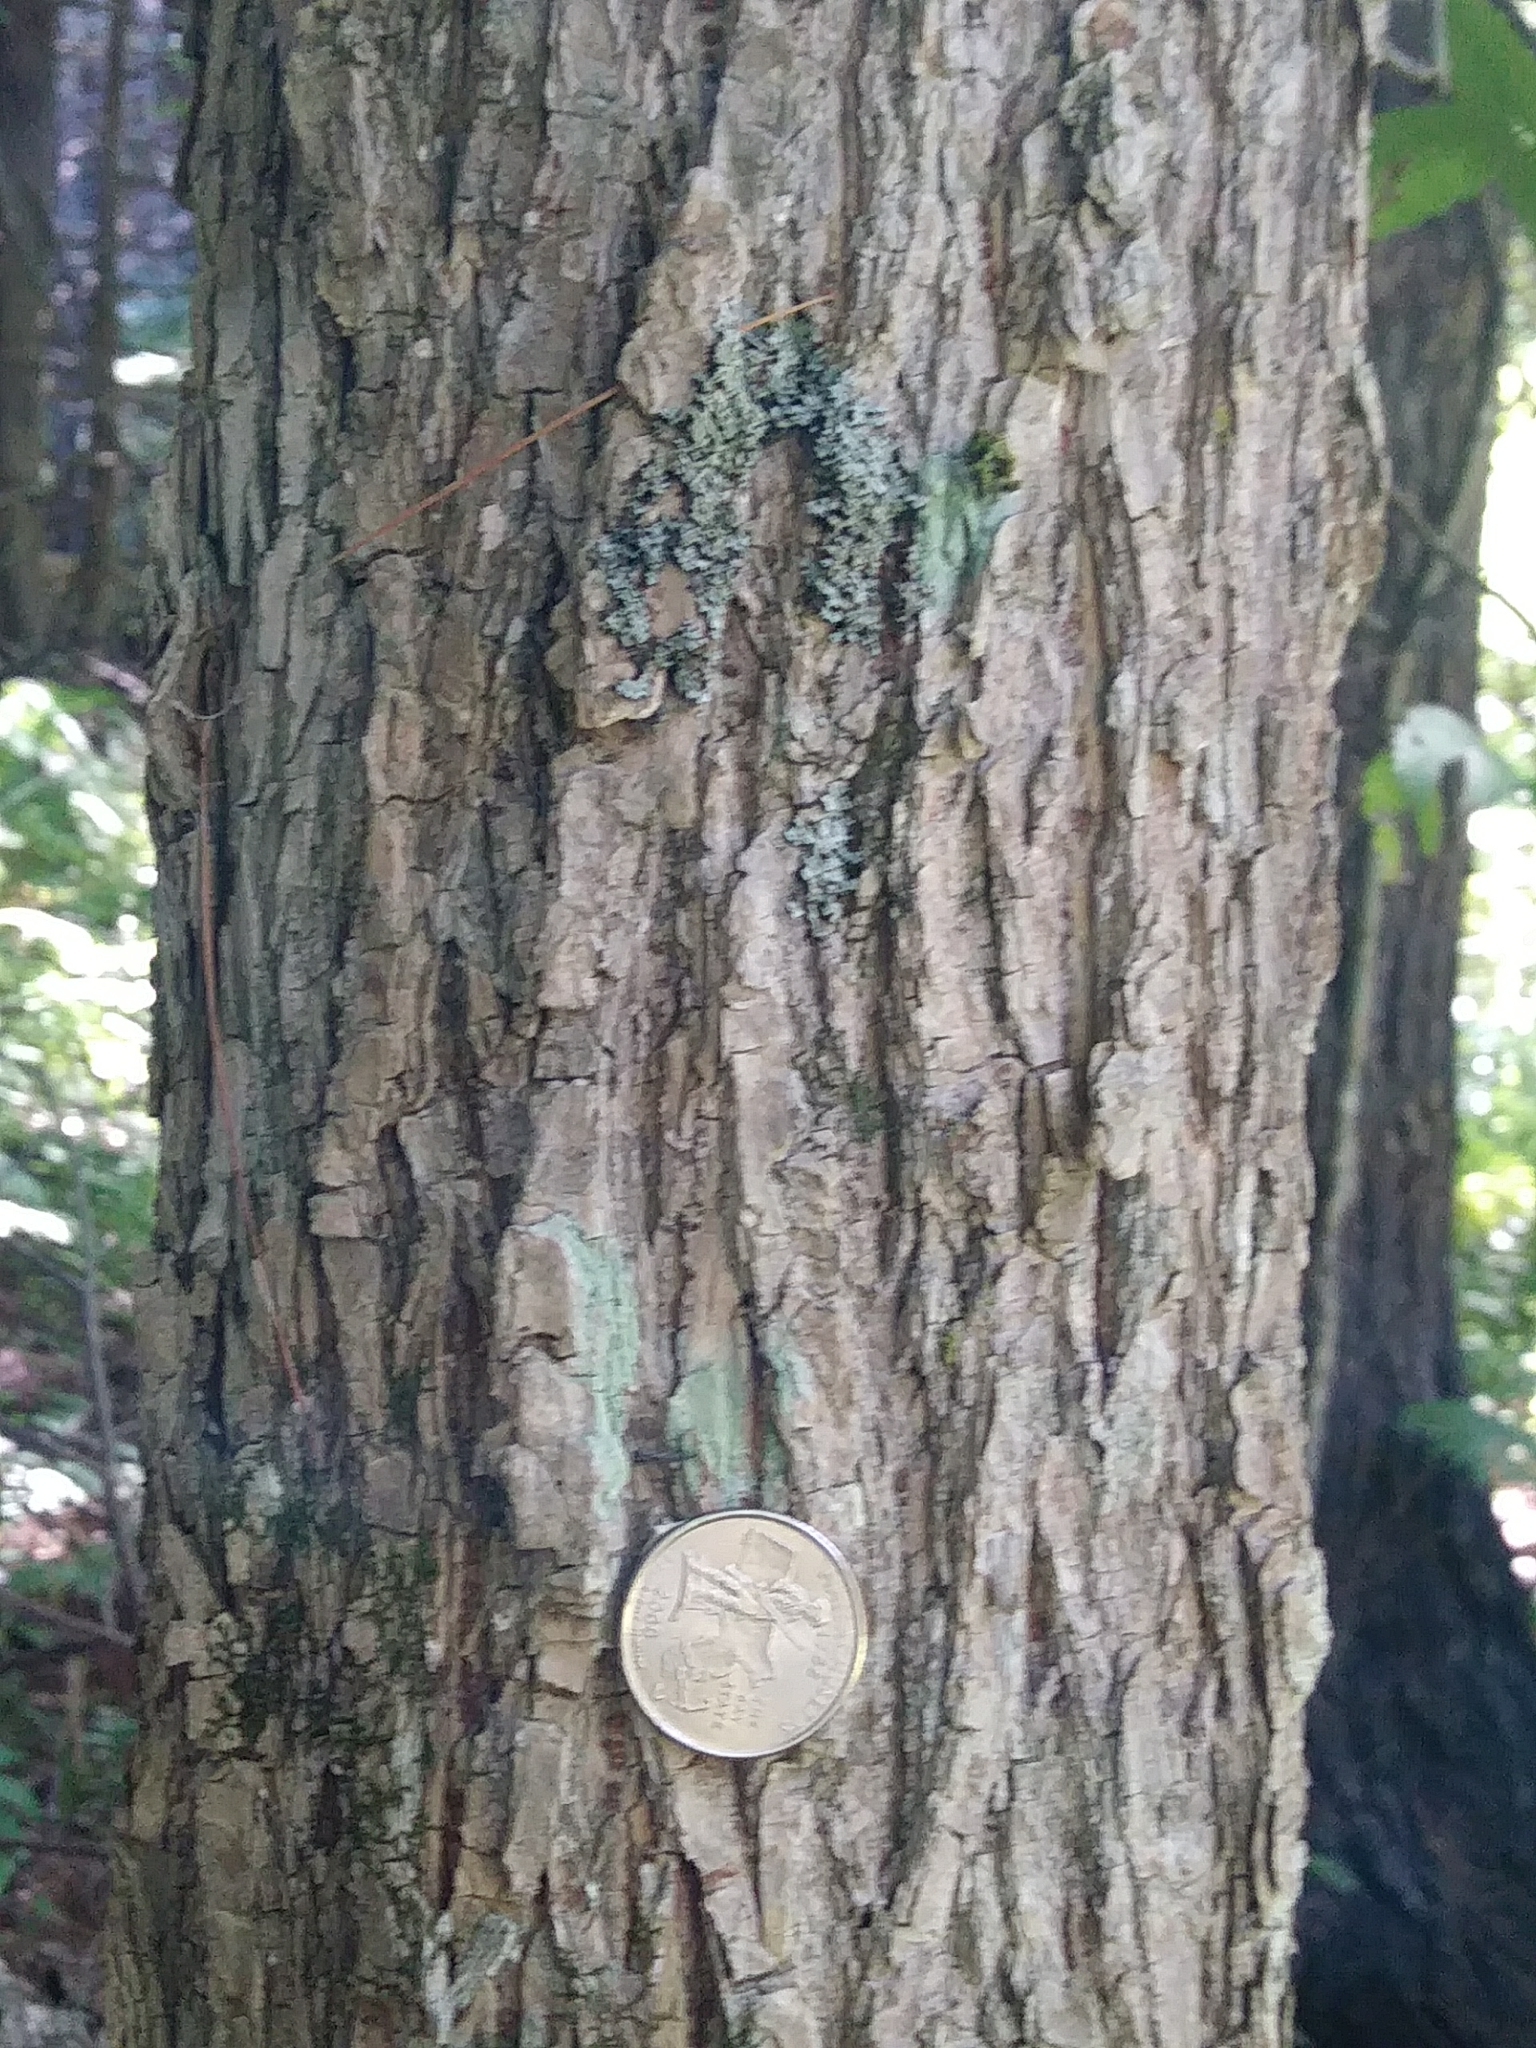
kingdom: Plantae
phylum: Tracheophyta
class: Magnoliopsida
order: Rosales
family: Ulmaceae
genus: Ulmus
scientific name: Ulmus americana
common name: American elm
